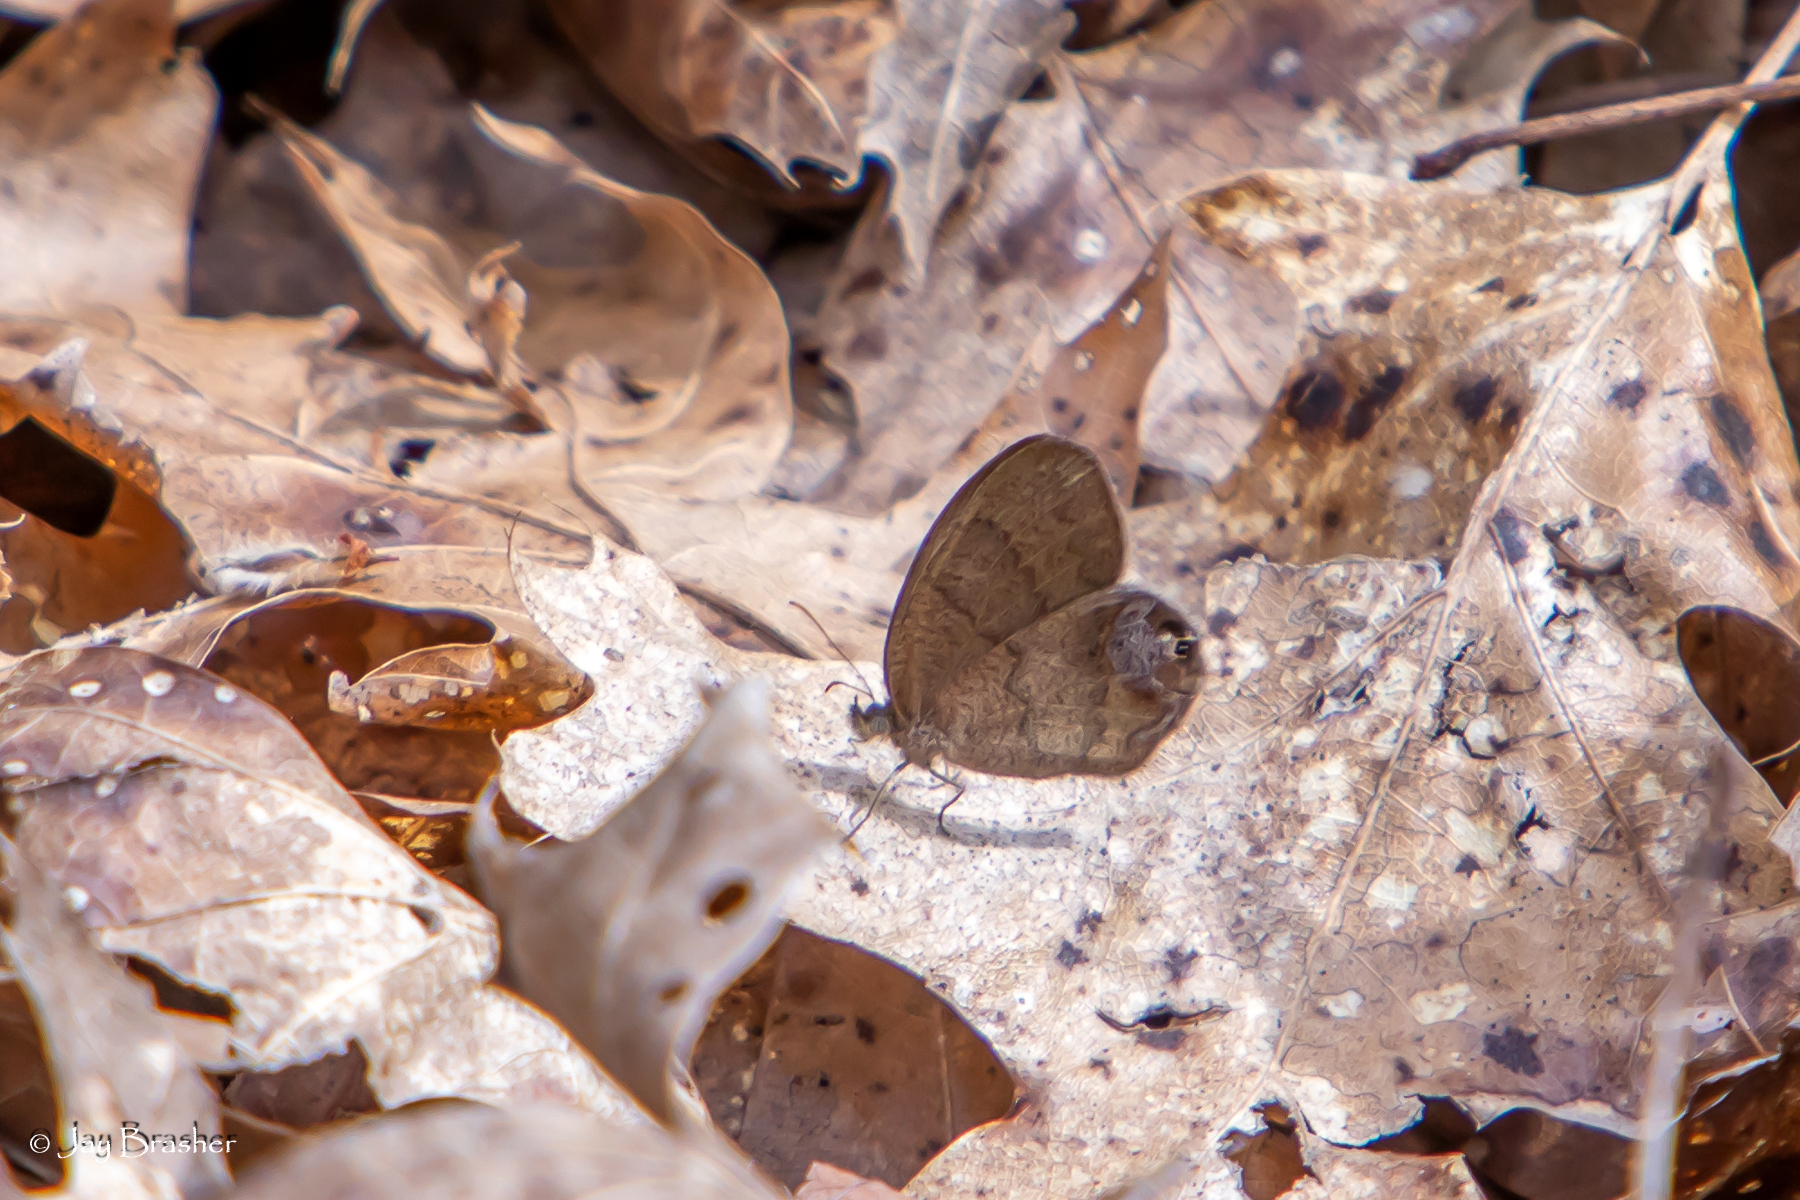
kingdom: Animalia
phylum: Arthropoda
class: Insecta
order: Lepidoptera
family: Nymphalidae
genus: Euptychia
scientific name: Euptychia cornelius
